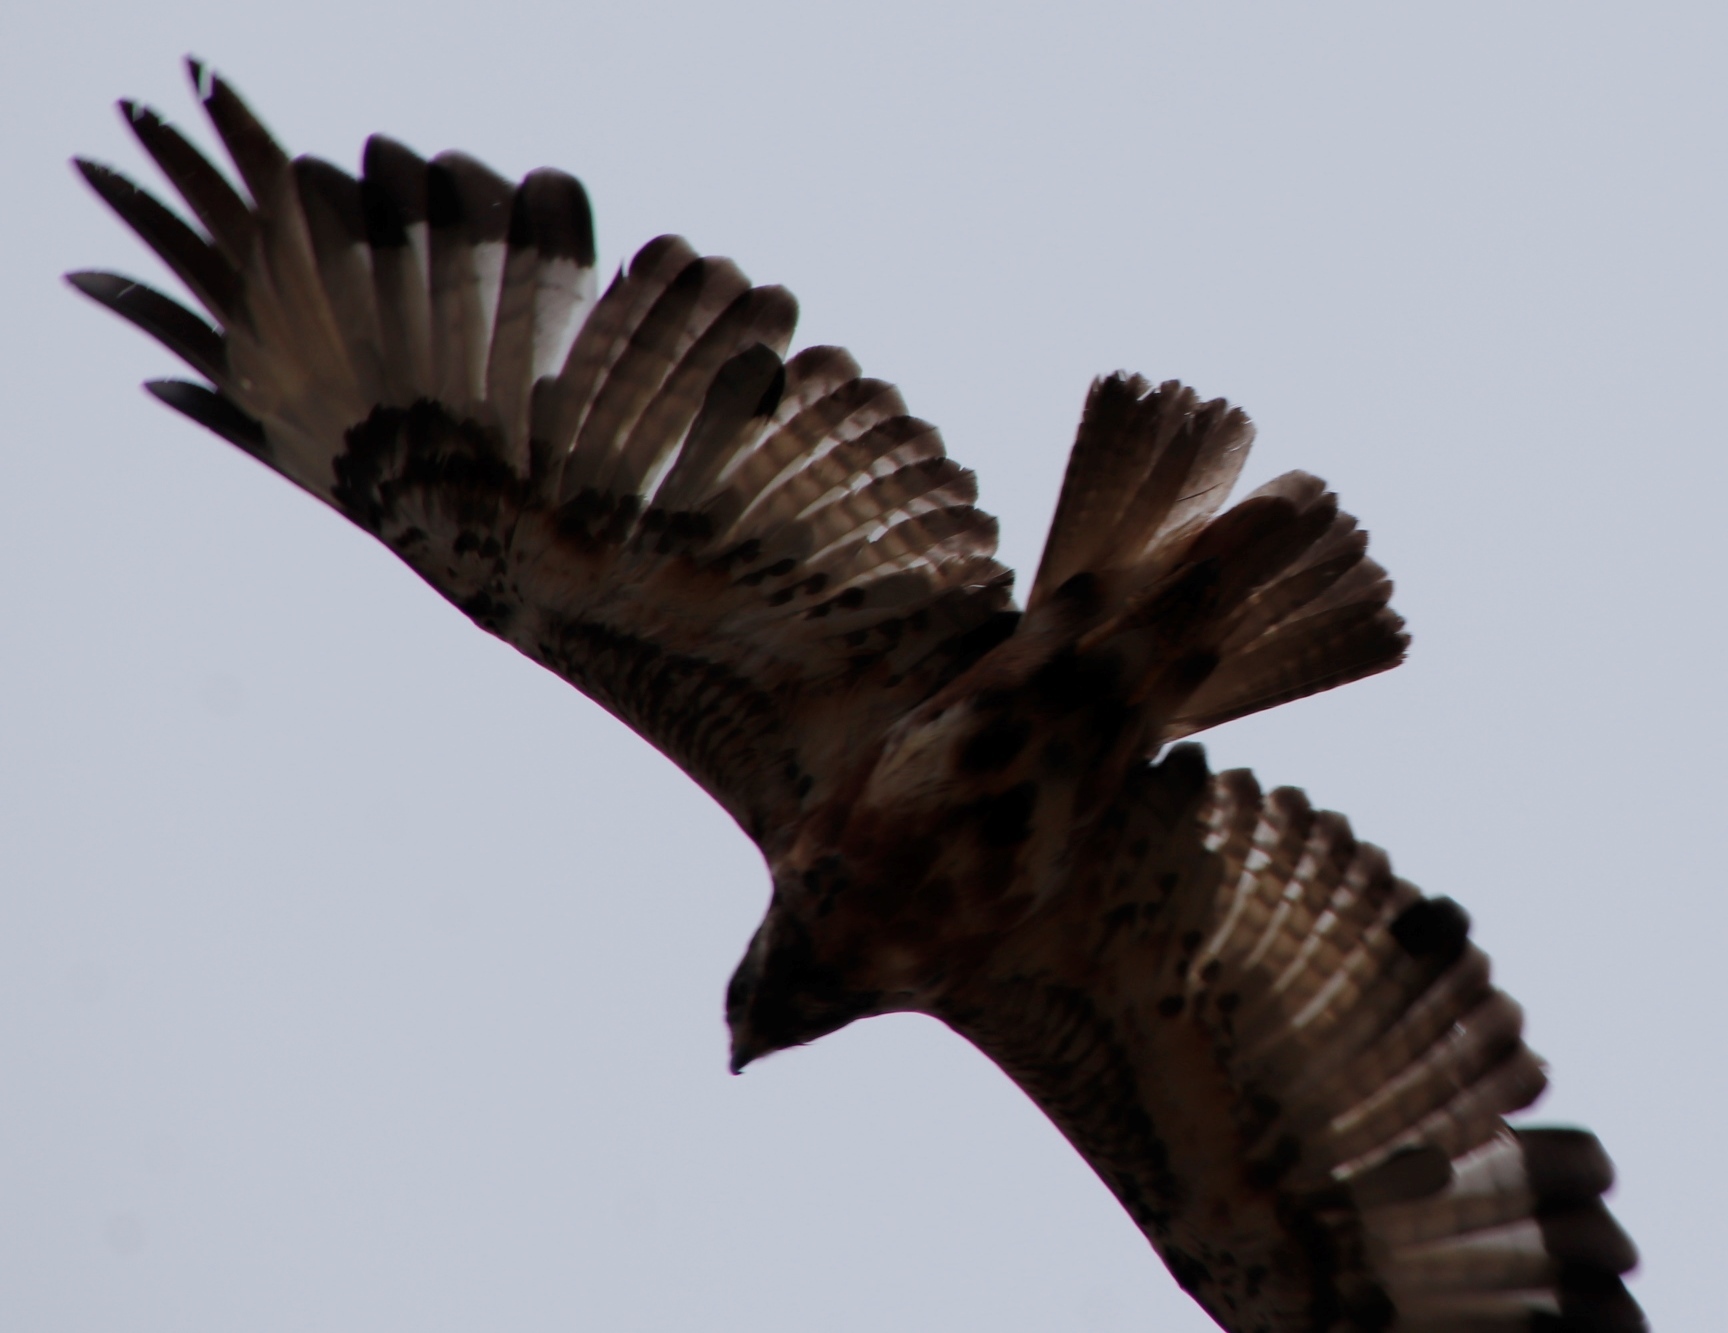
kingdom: Animalia
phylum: Chordata
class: Aves
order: Accipitriformes
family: Accipitridae
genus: Buteo
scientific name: Buteo buteo
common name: Common buzzard
